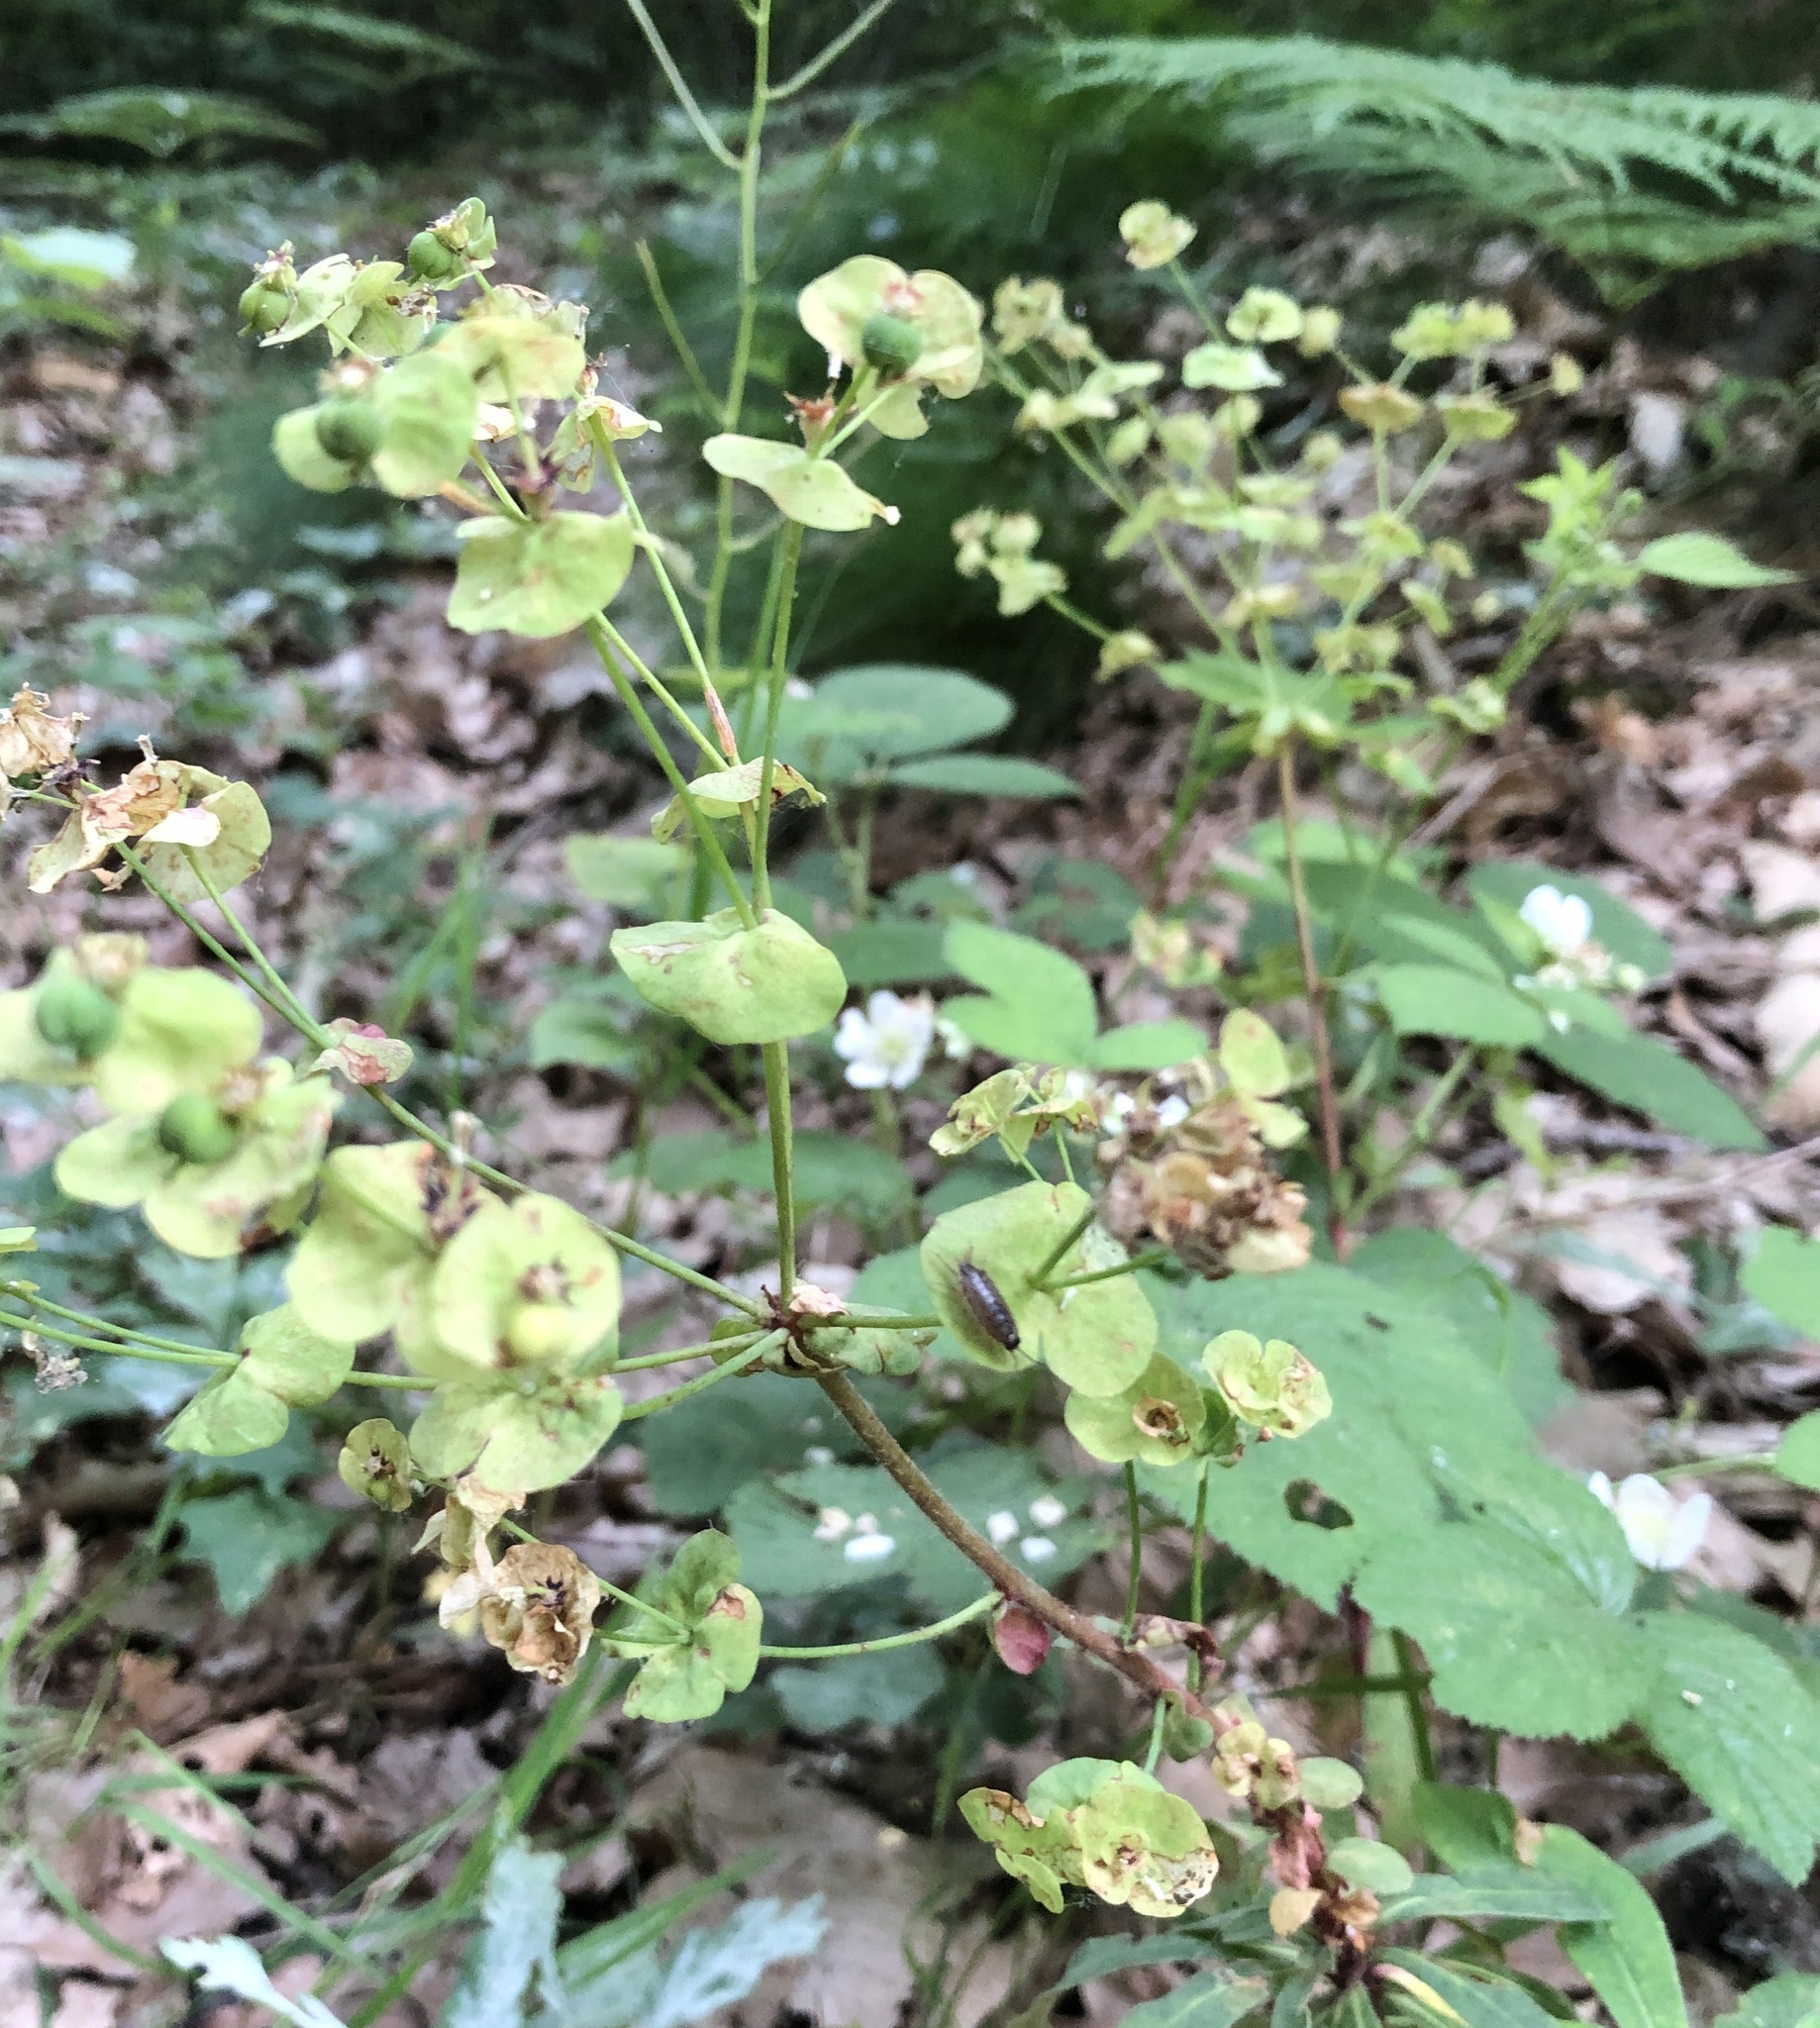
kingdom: Plantae
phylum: Tracheophyta
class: Magnoliopsida
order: Malpighiales
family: Euphorbiaceae
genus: Euphorbia
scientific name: Euphorbia amygdaloides
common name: Wood spurge
